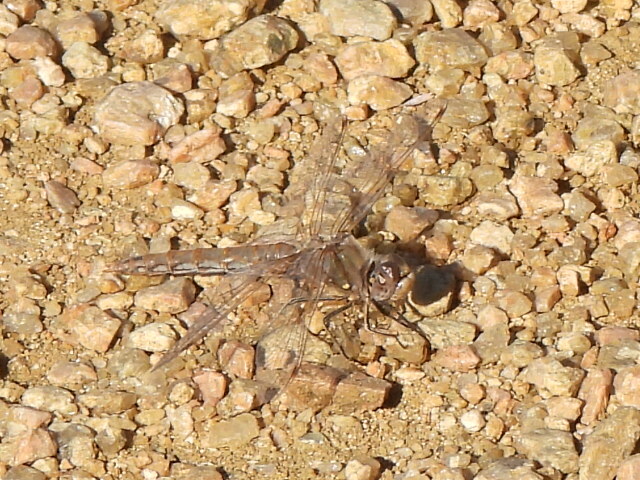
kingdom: Animalia
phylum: Arthropoda
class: Insecta
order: Odonata
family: Libellulidae
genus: Sympetrum
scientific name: Sympetrum corruptum
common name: Variegated meadowhawk
